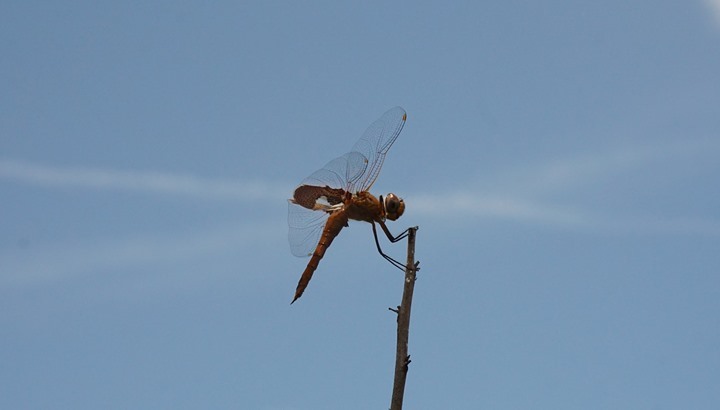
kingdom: Animalia
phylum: Arthropoda
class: Insecta
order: Odonata
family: Libellulidae
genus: Tramea
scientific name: Tramea onusta
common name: Red saddlebags
